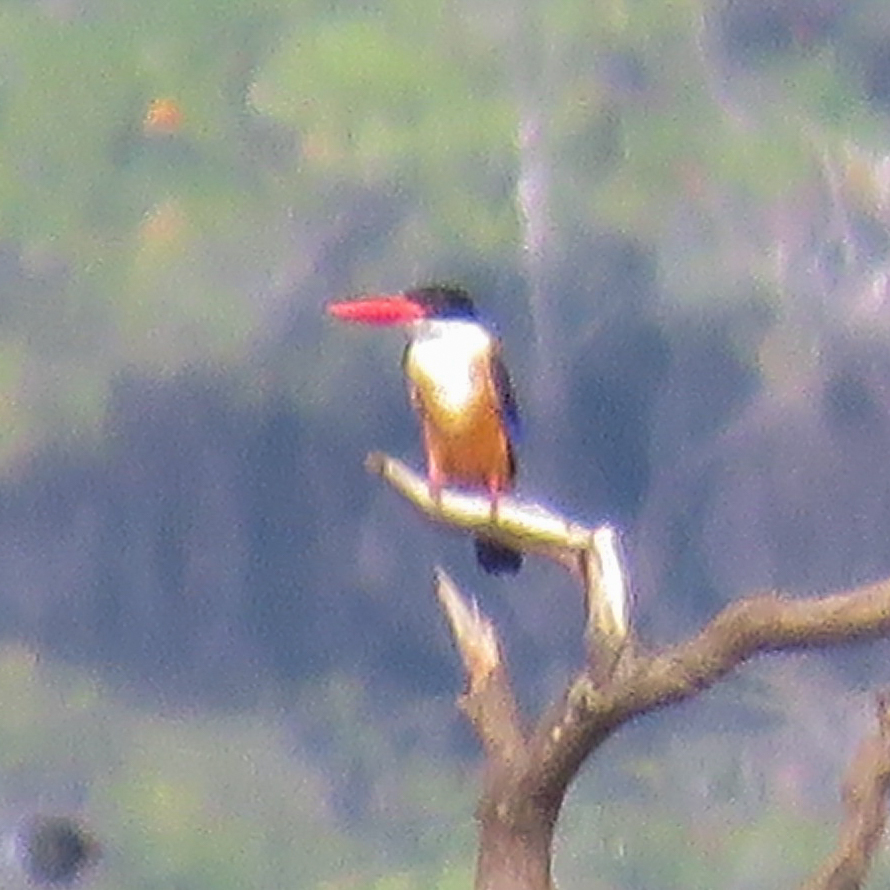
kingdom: Animalia
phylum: Chordata
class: Aves
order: Coraciiformes
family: Alcedinidae
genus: Halcyon
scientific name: Halcyon pileata
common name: Black-capped kingfisher
